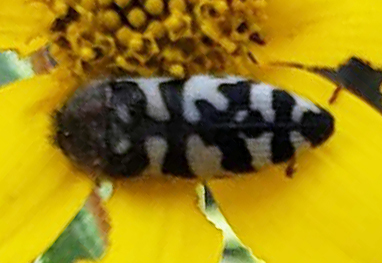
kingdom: Animalia
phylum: Arthropoda
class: Insecta
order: Coleoptera
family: Buprestidae
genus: Acmaeodera
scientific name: Acmaeodera decipiens
